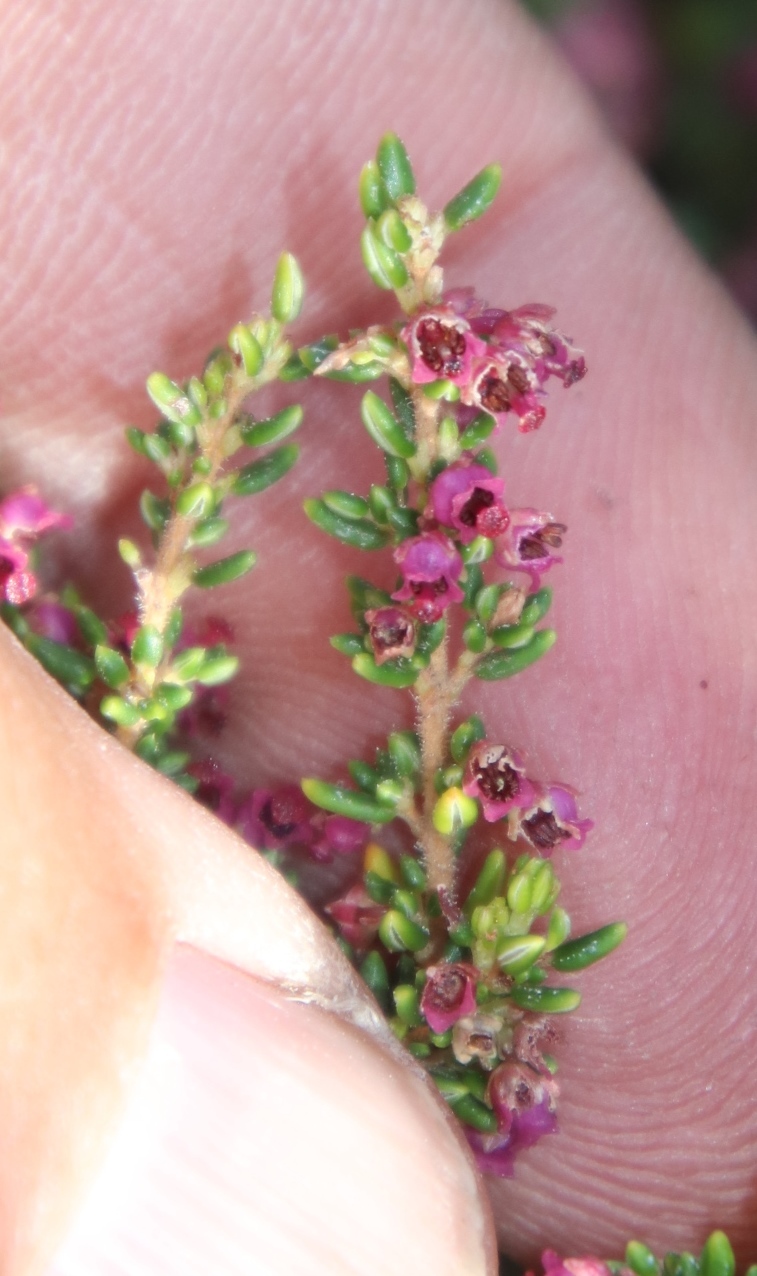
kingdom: Plantae
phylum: Tracheophyta
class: Magnoliopsida
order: Ericales
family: Ericaceae
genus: Erica
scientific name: Erica hispidula
